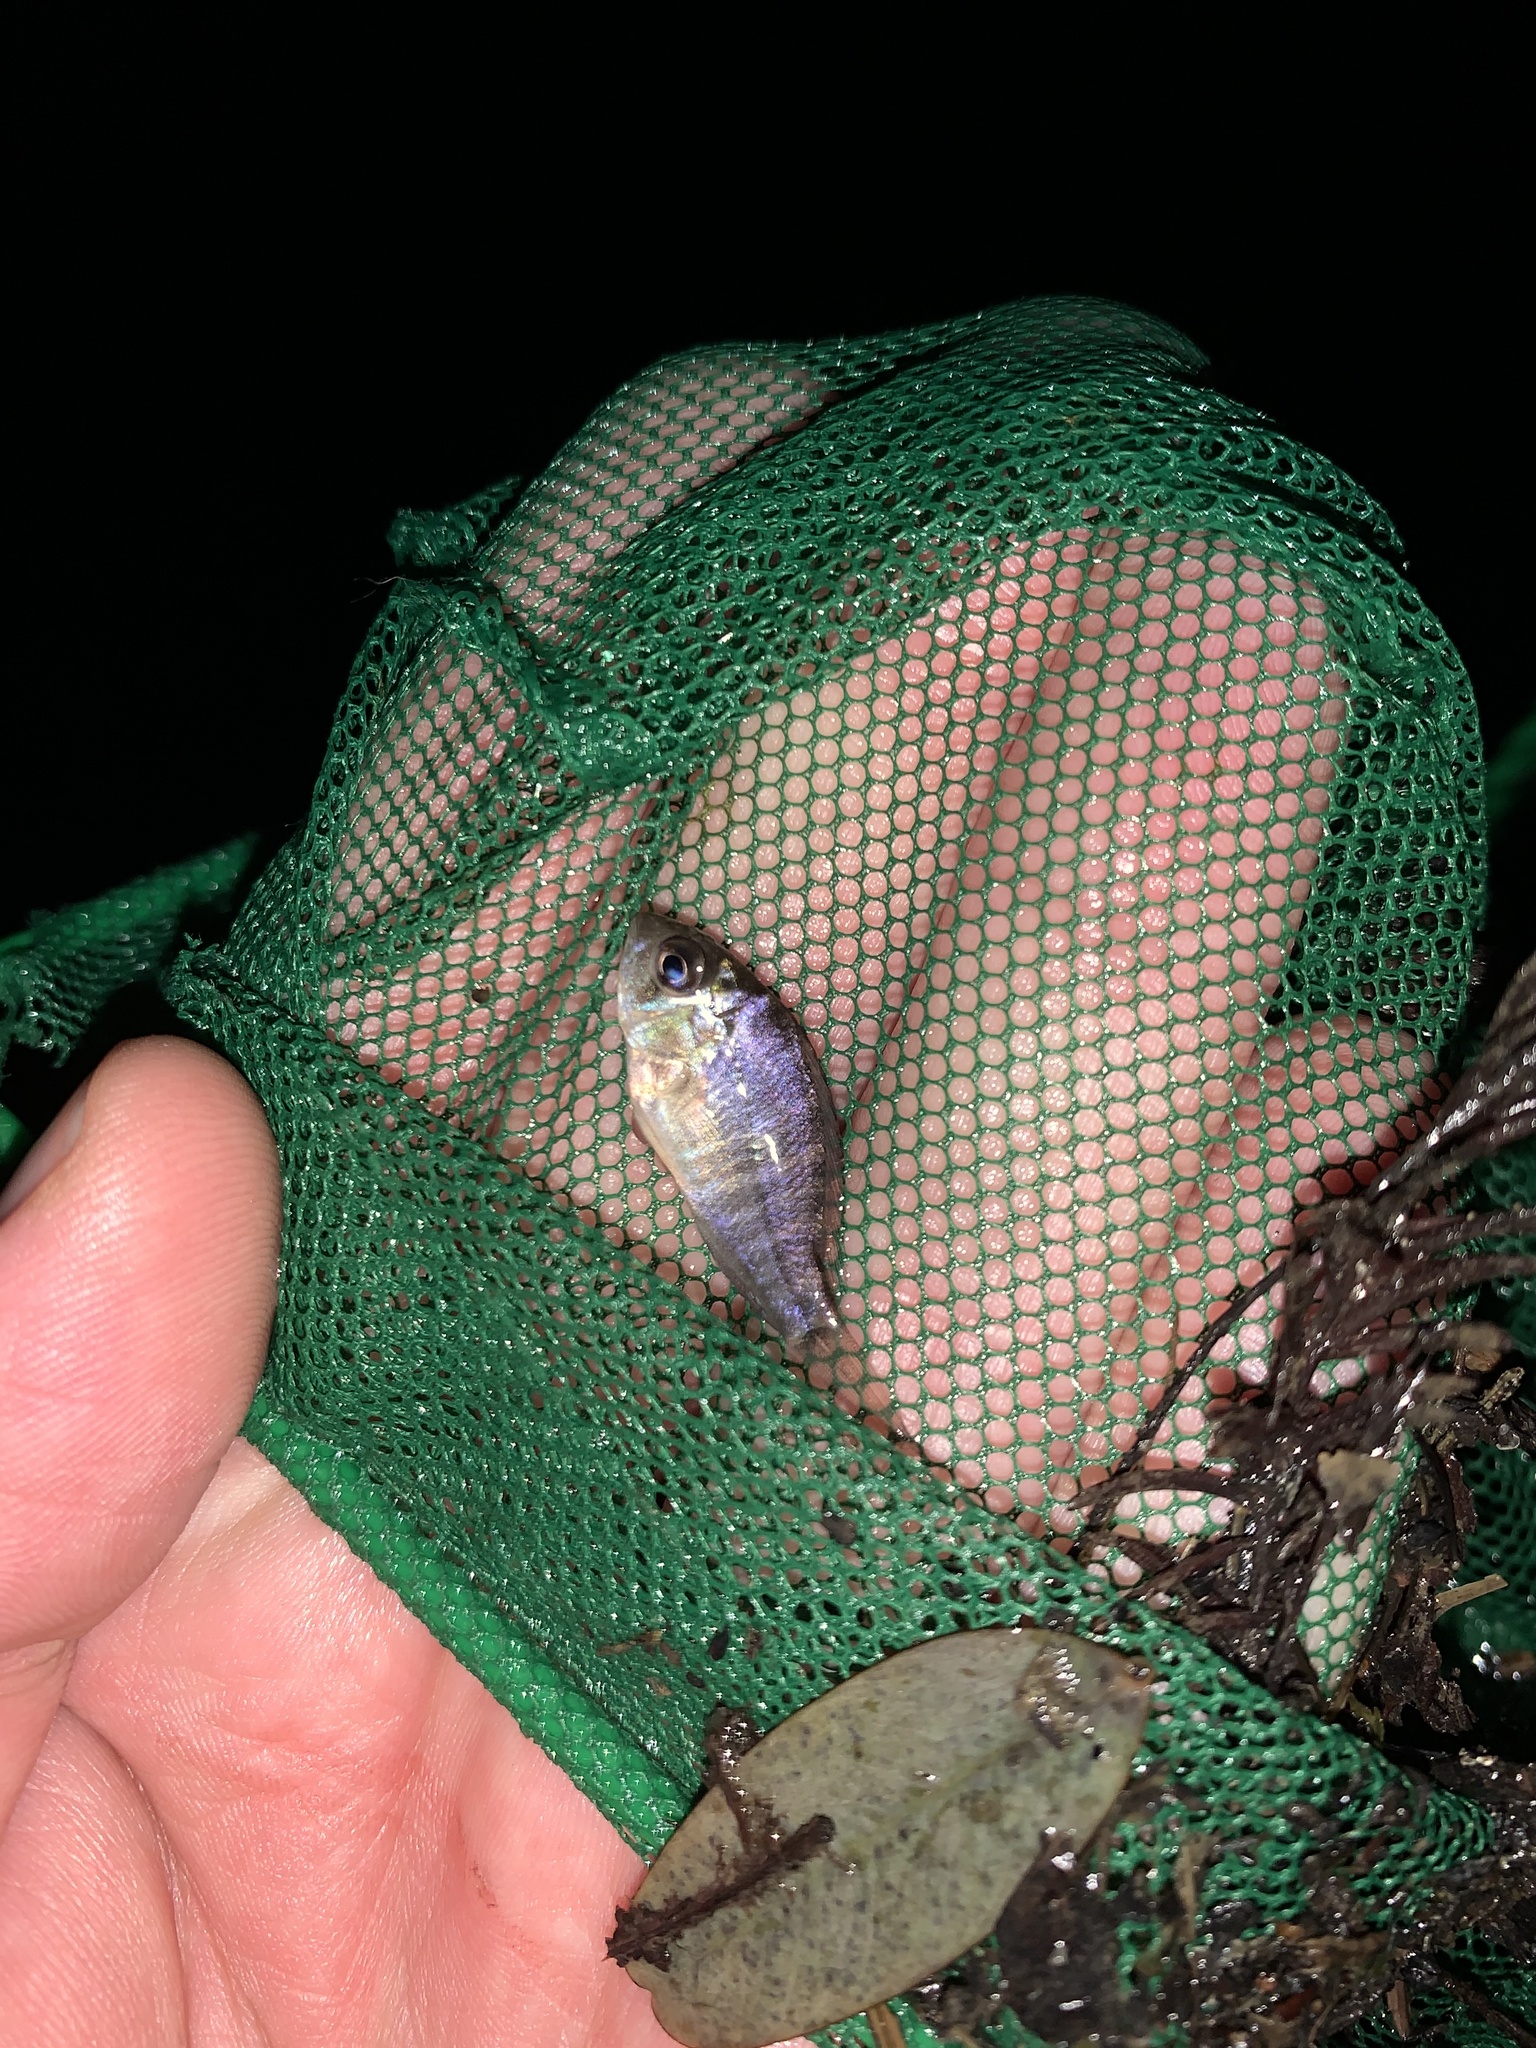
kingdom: Animalia
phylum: Chordata
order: Perciformes
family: Cichlidae
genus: Gymnogeophagus
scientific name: Gymnogeophagus meridionalis
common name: Earth eater
